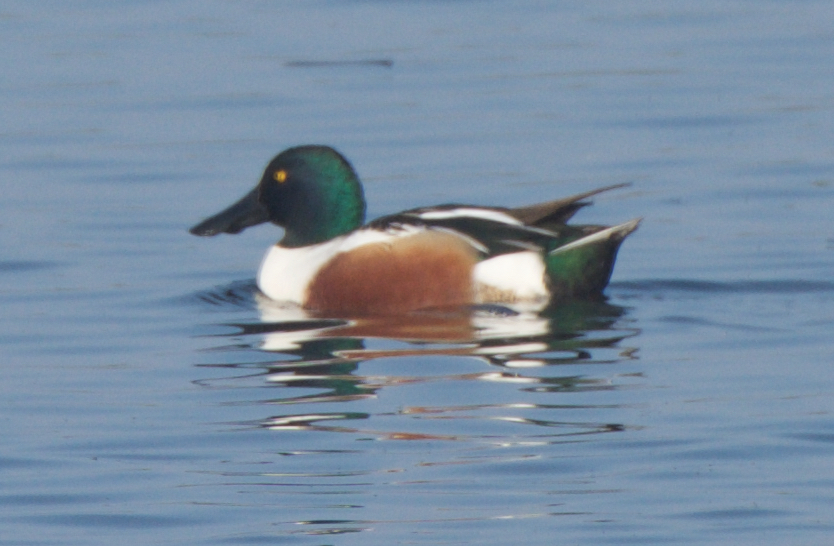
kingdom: Animalia
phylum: Chordata
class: Aves
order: Anseriformes
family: Anatidae
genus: Spatula
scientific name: Spatula clypeata
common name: Northern shoveler
